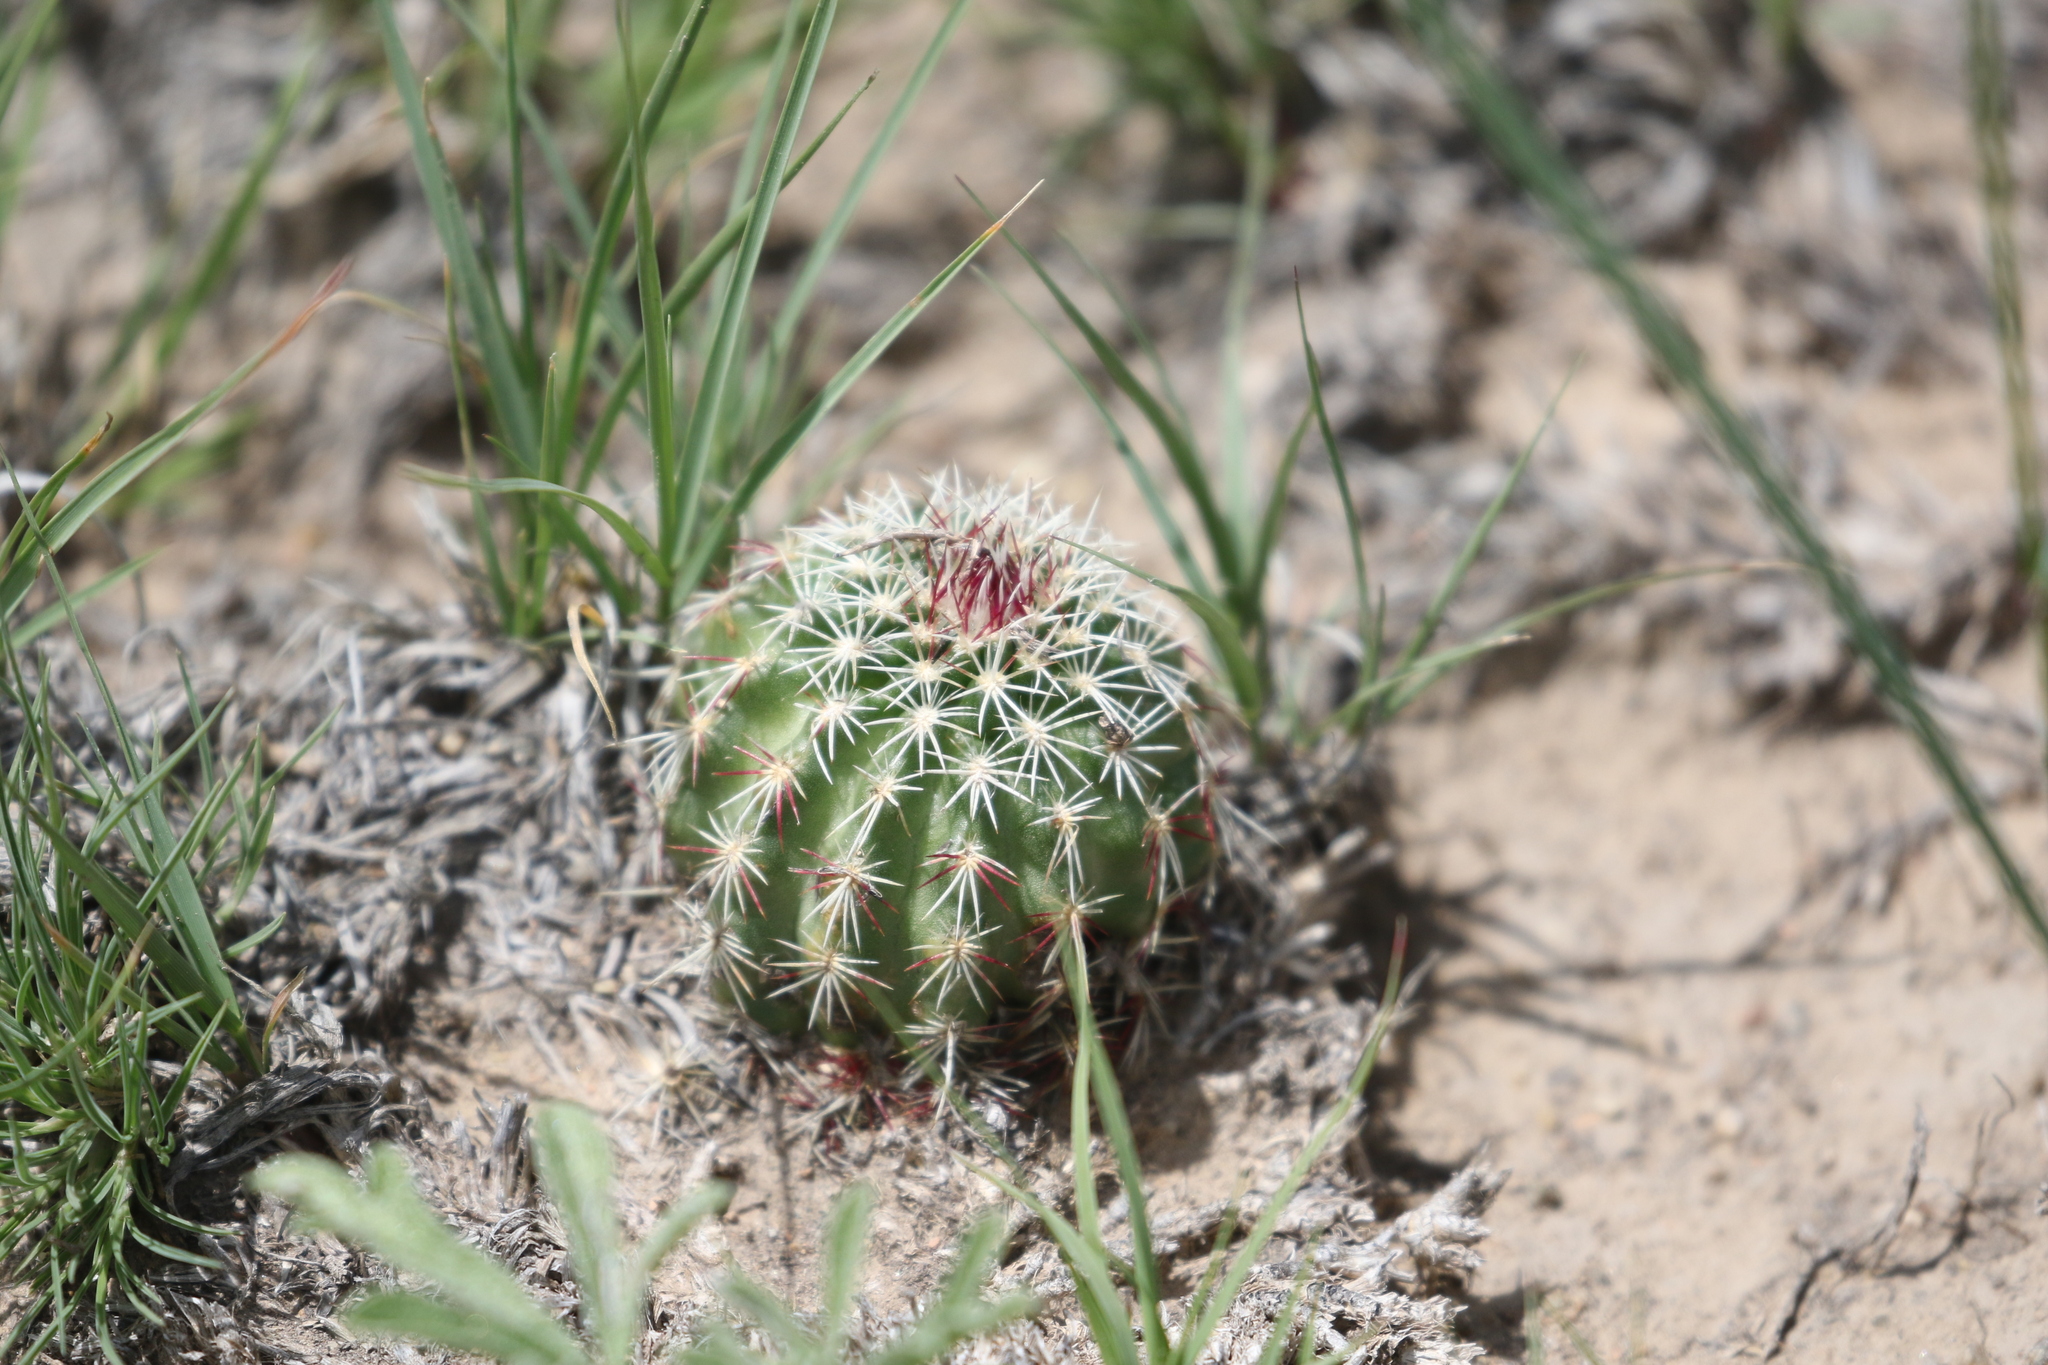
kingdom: Plantae
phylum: Tracheophyta
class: Magnoliopsida
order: Caryophyllales
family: Cactaceae
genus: Echinocereus
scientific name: Echinocereus viridiflorus
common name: Nylon hedgehog cactus
